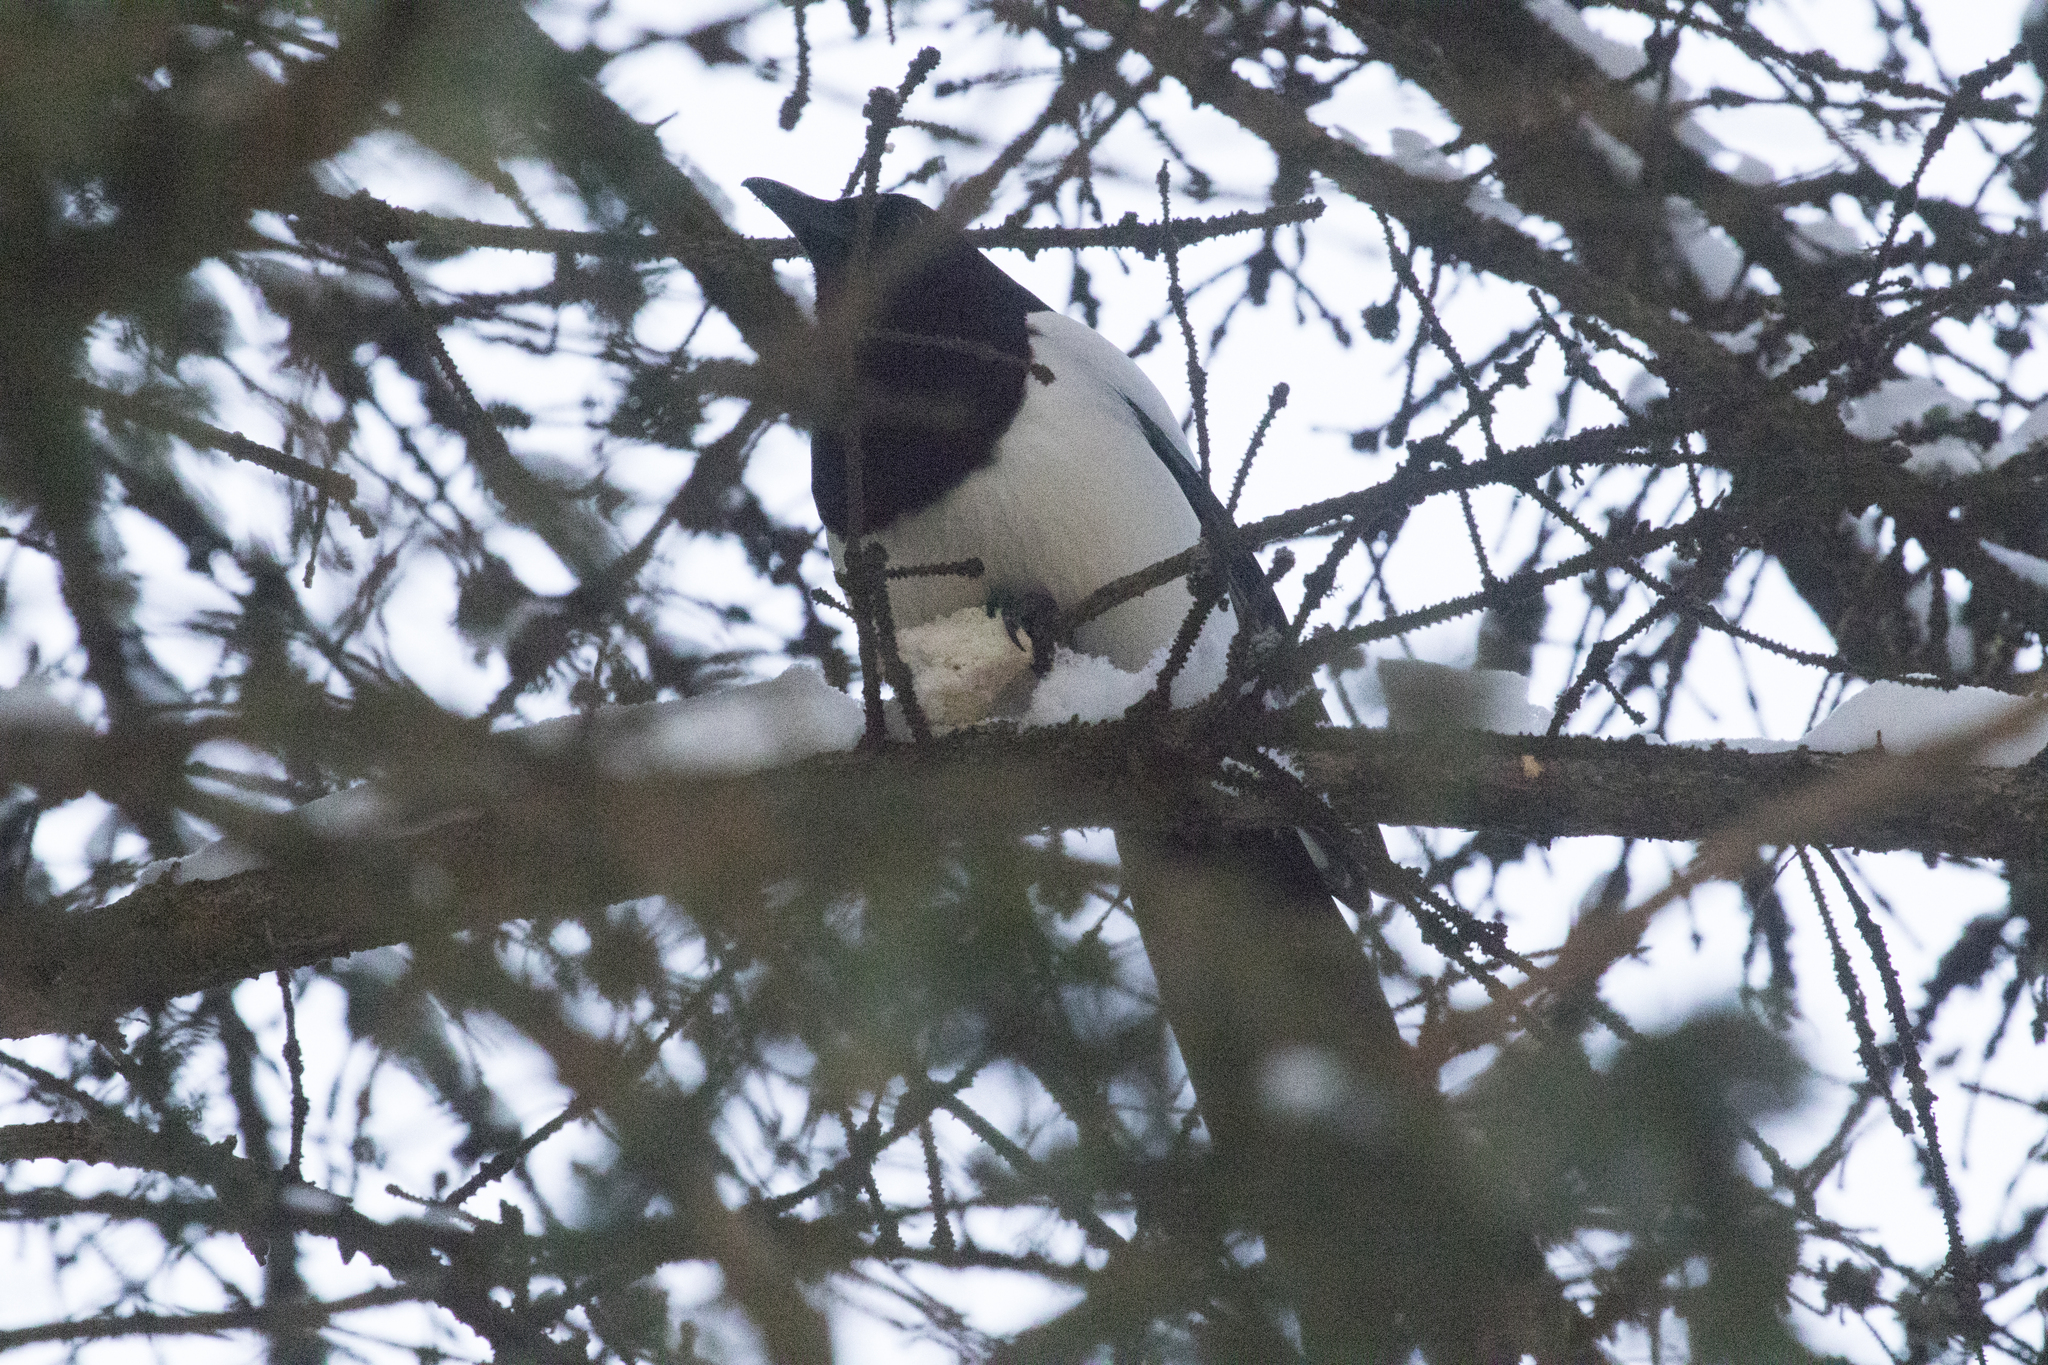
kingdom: Animalia
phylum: Chordata
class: Aves
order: Passeriformes
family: Corvidae
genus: Pica
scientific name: Pica pica
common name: Eurasian magpie
